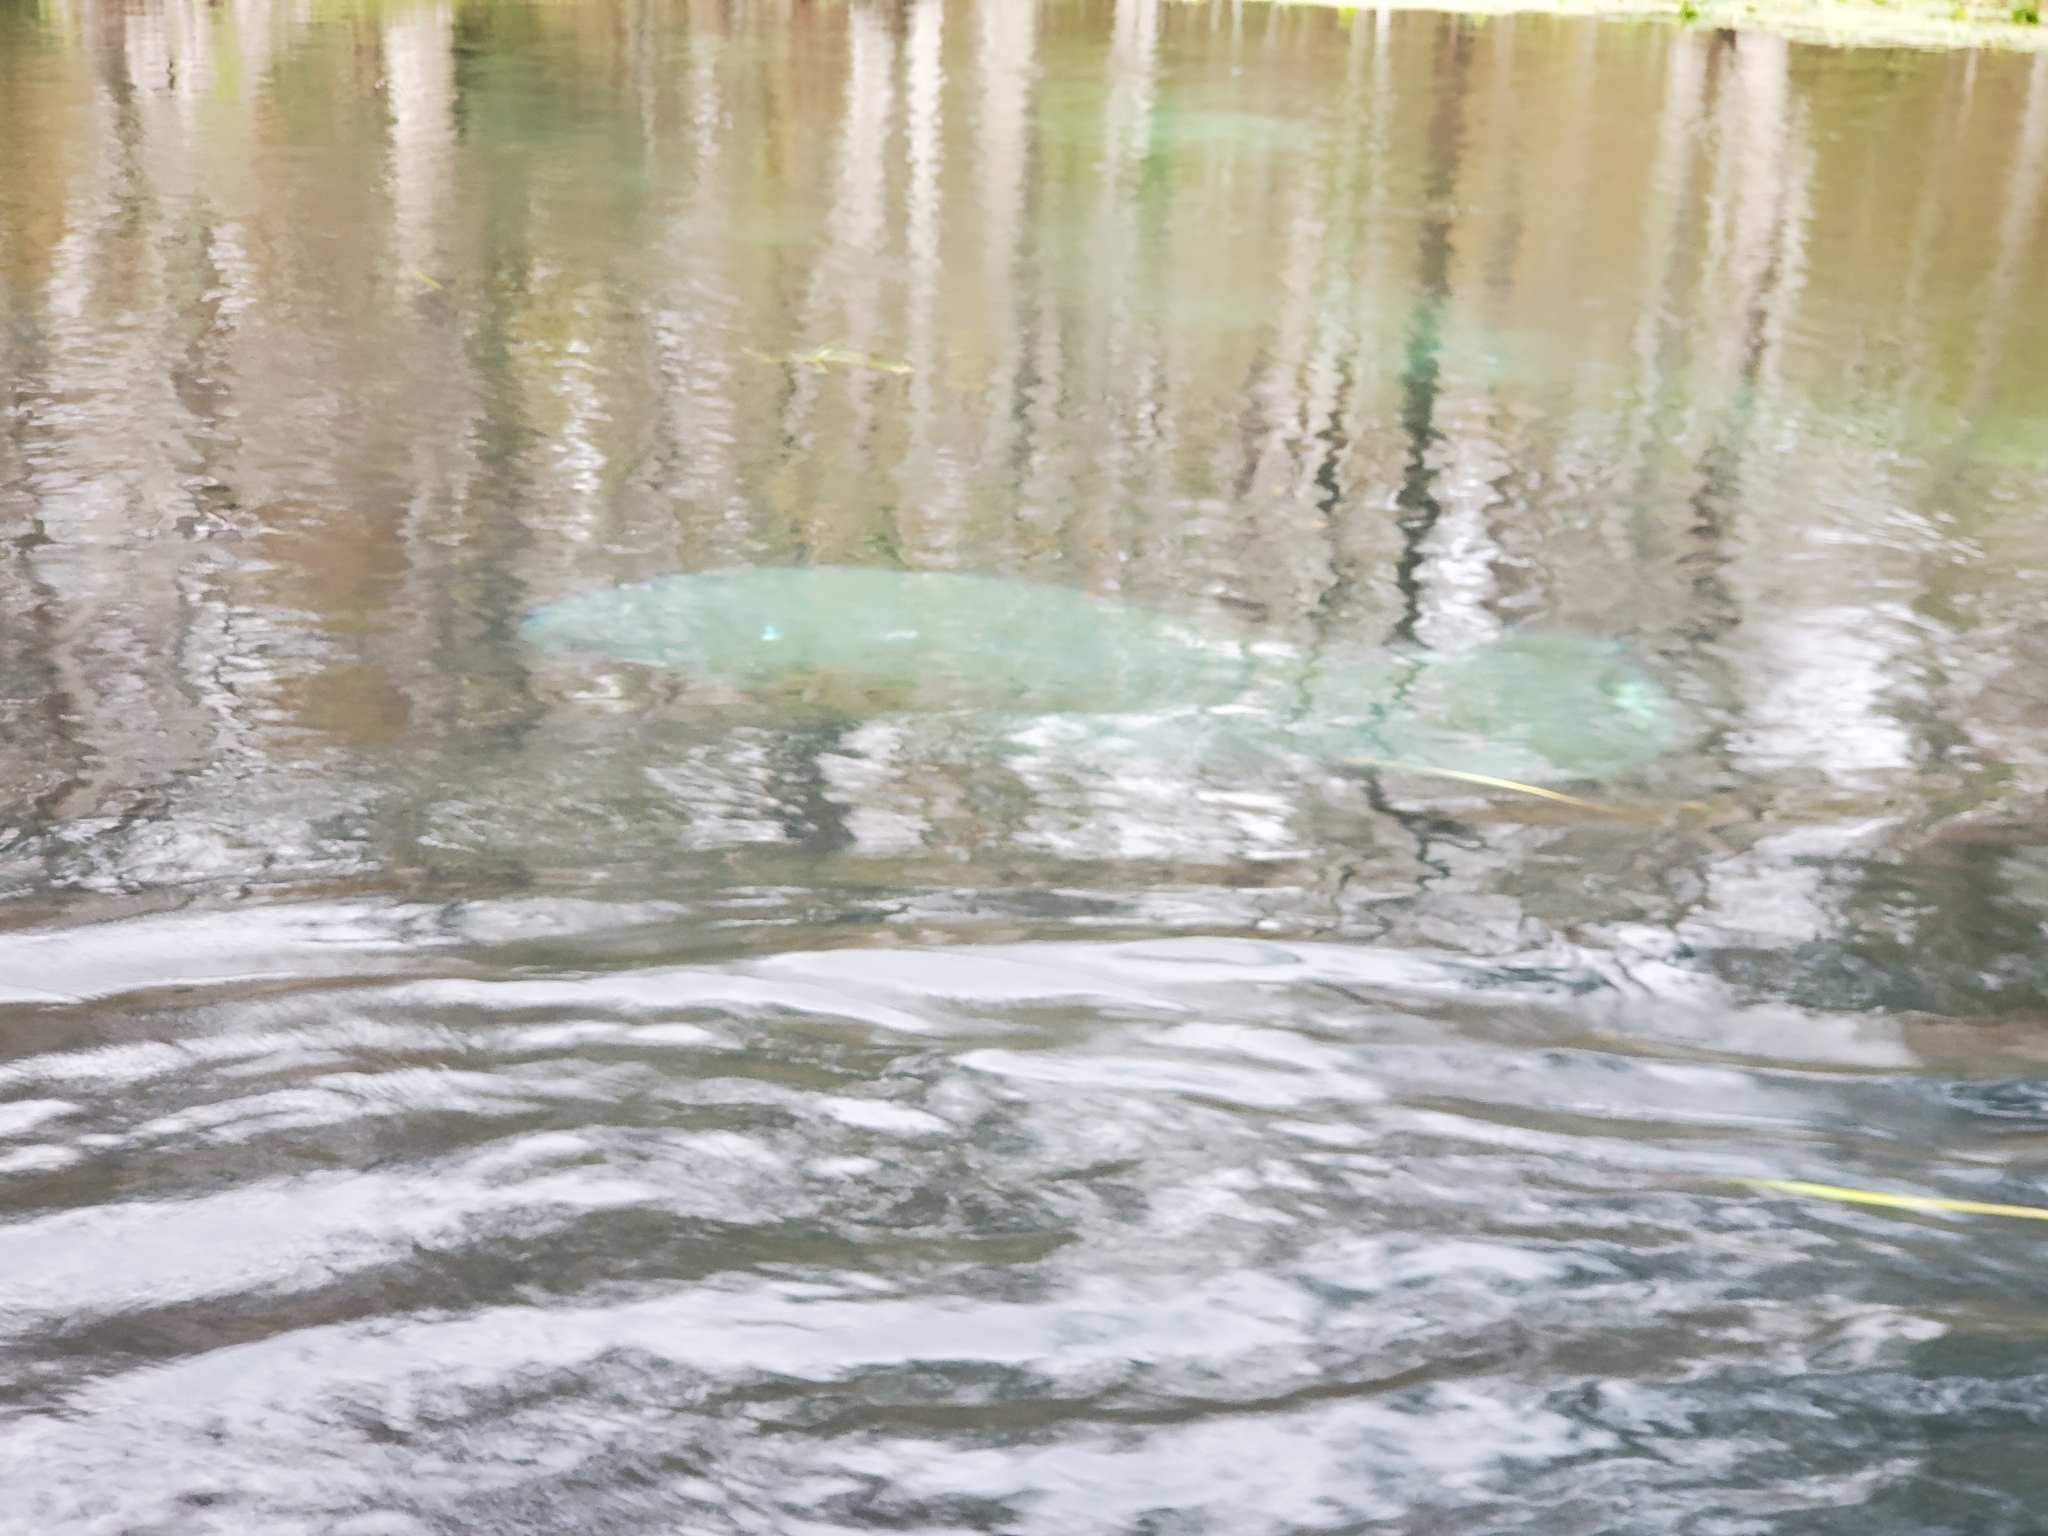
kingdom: Animalia
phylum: Chordata
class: Mammalia
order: Sirenia
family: Trichechidae
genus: Trichechus
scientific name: Trichechus manatus
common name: West indian manatee
